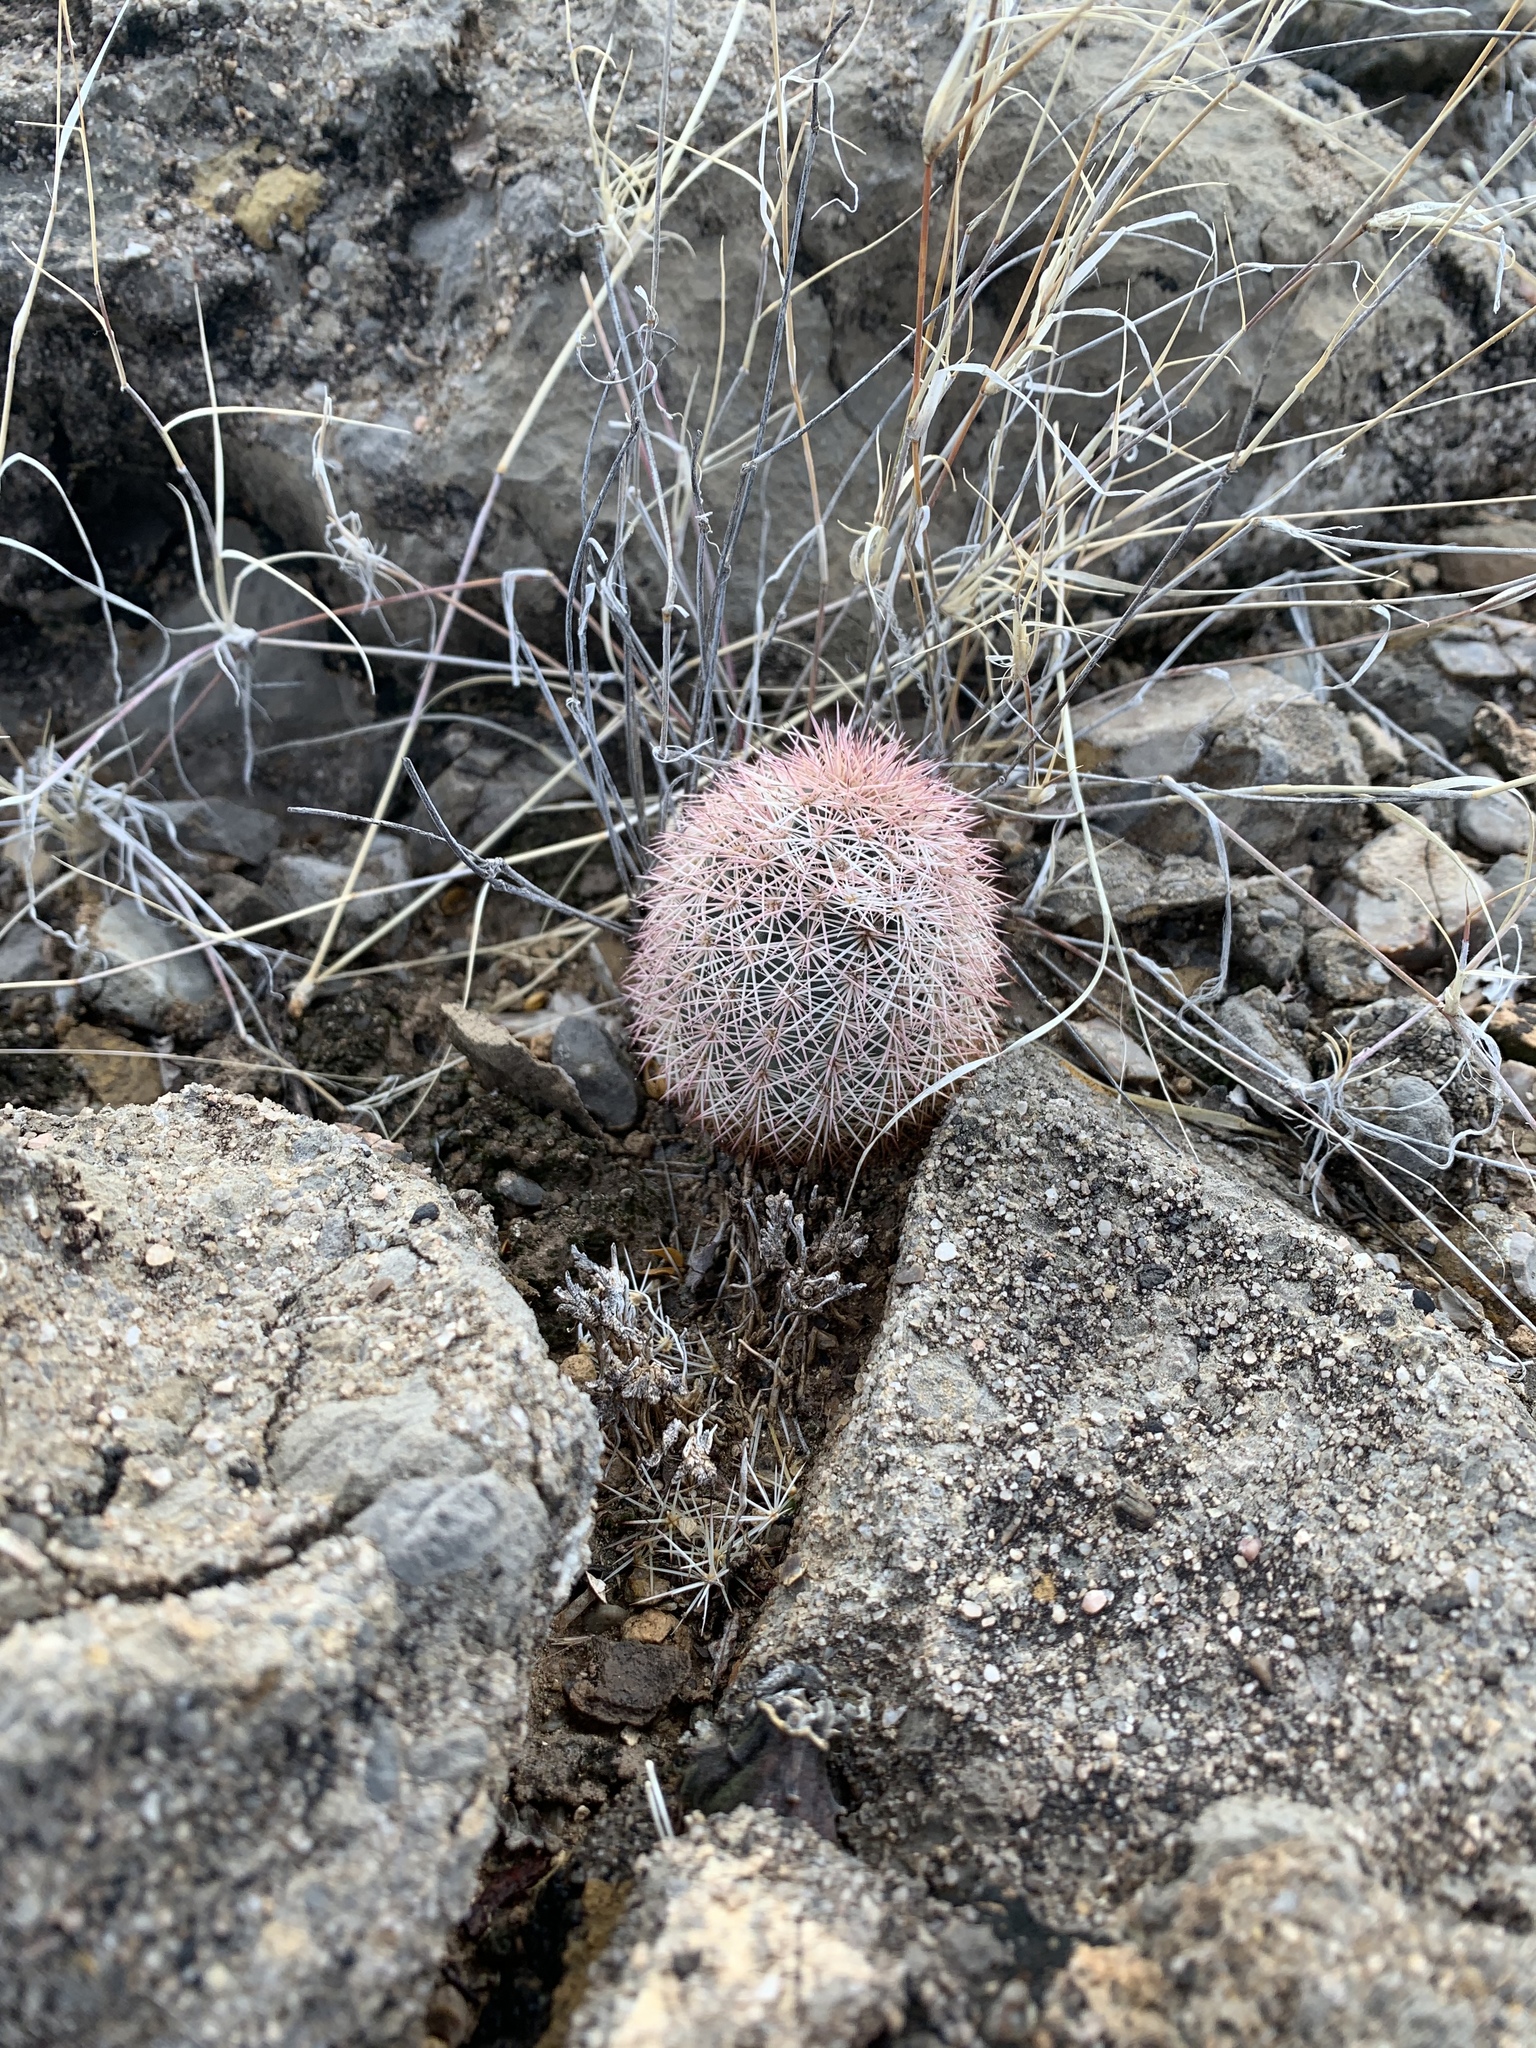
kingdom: Plantae
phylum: Tracheophyta
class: Magnoliopsida
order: Caryophyllales
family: Cactaceae
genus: Echinocereus
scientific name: Echinocereus dasyacanthus
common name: Spiny hedgehog cactus
